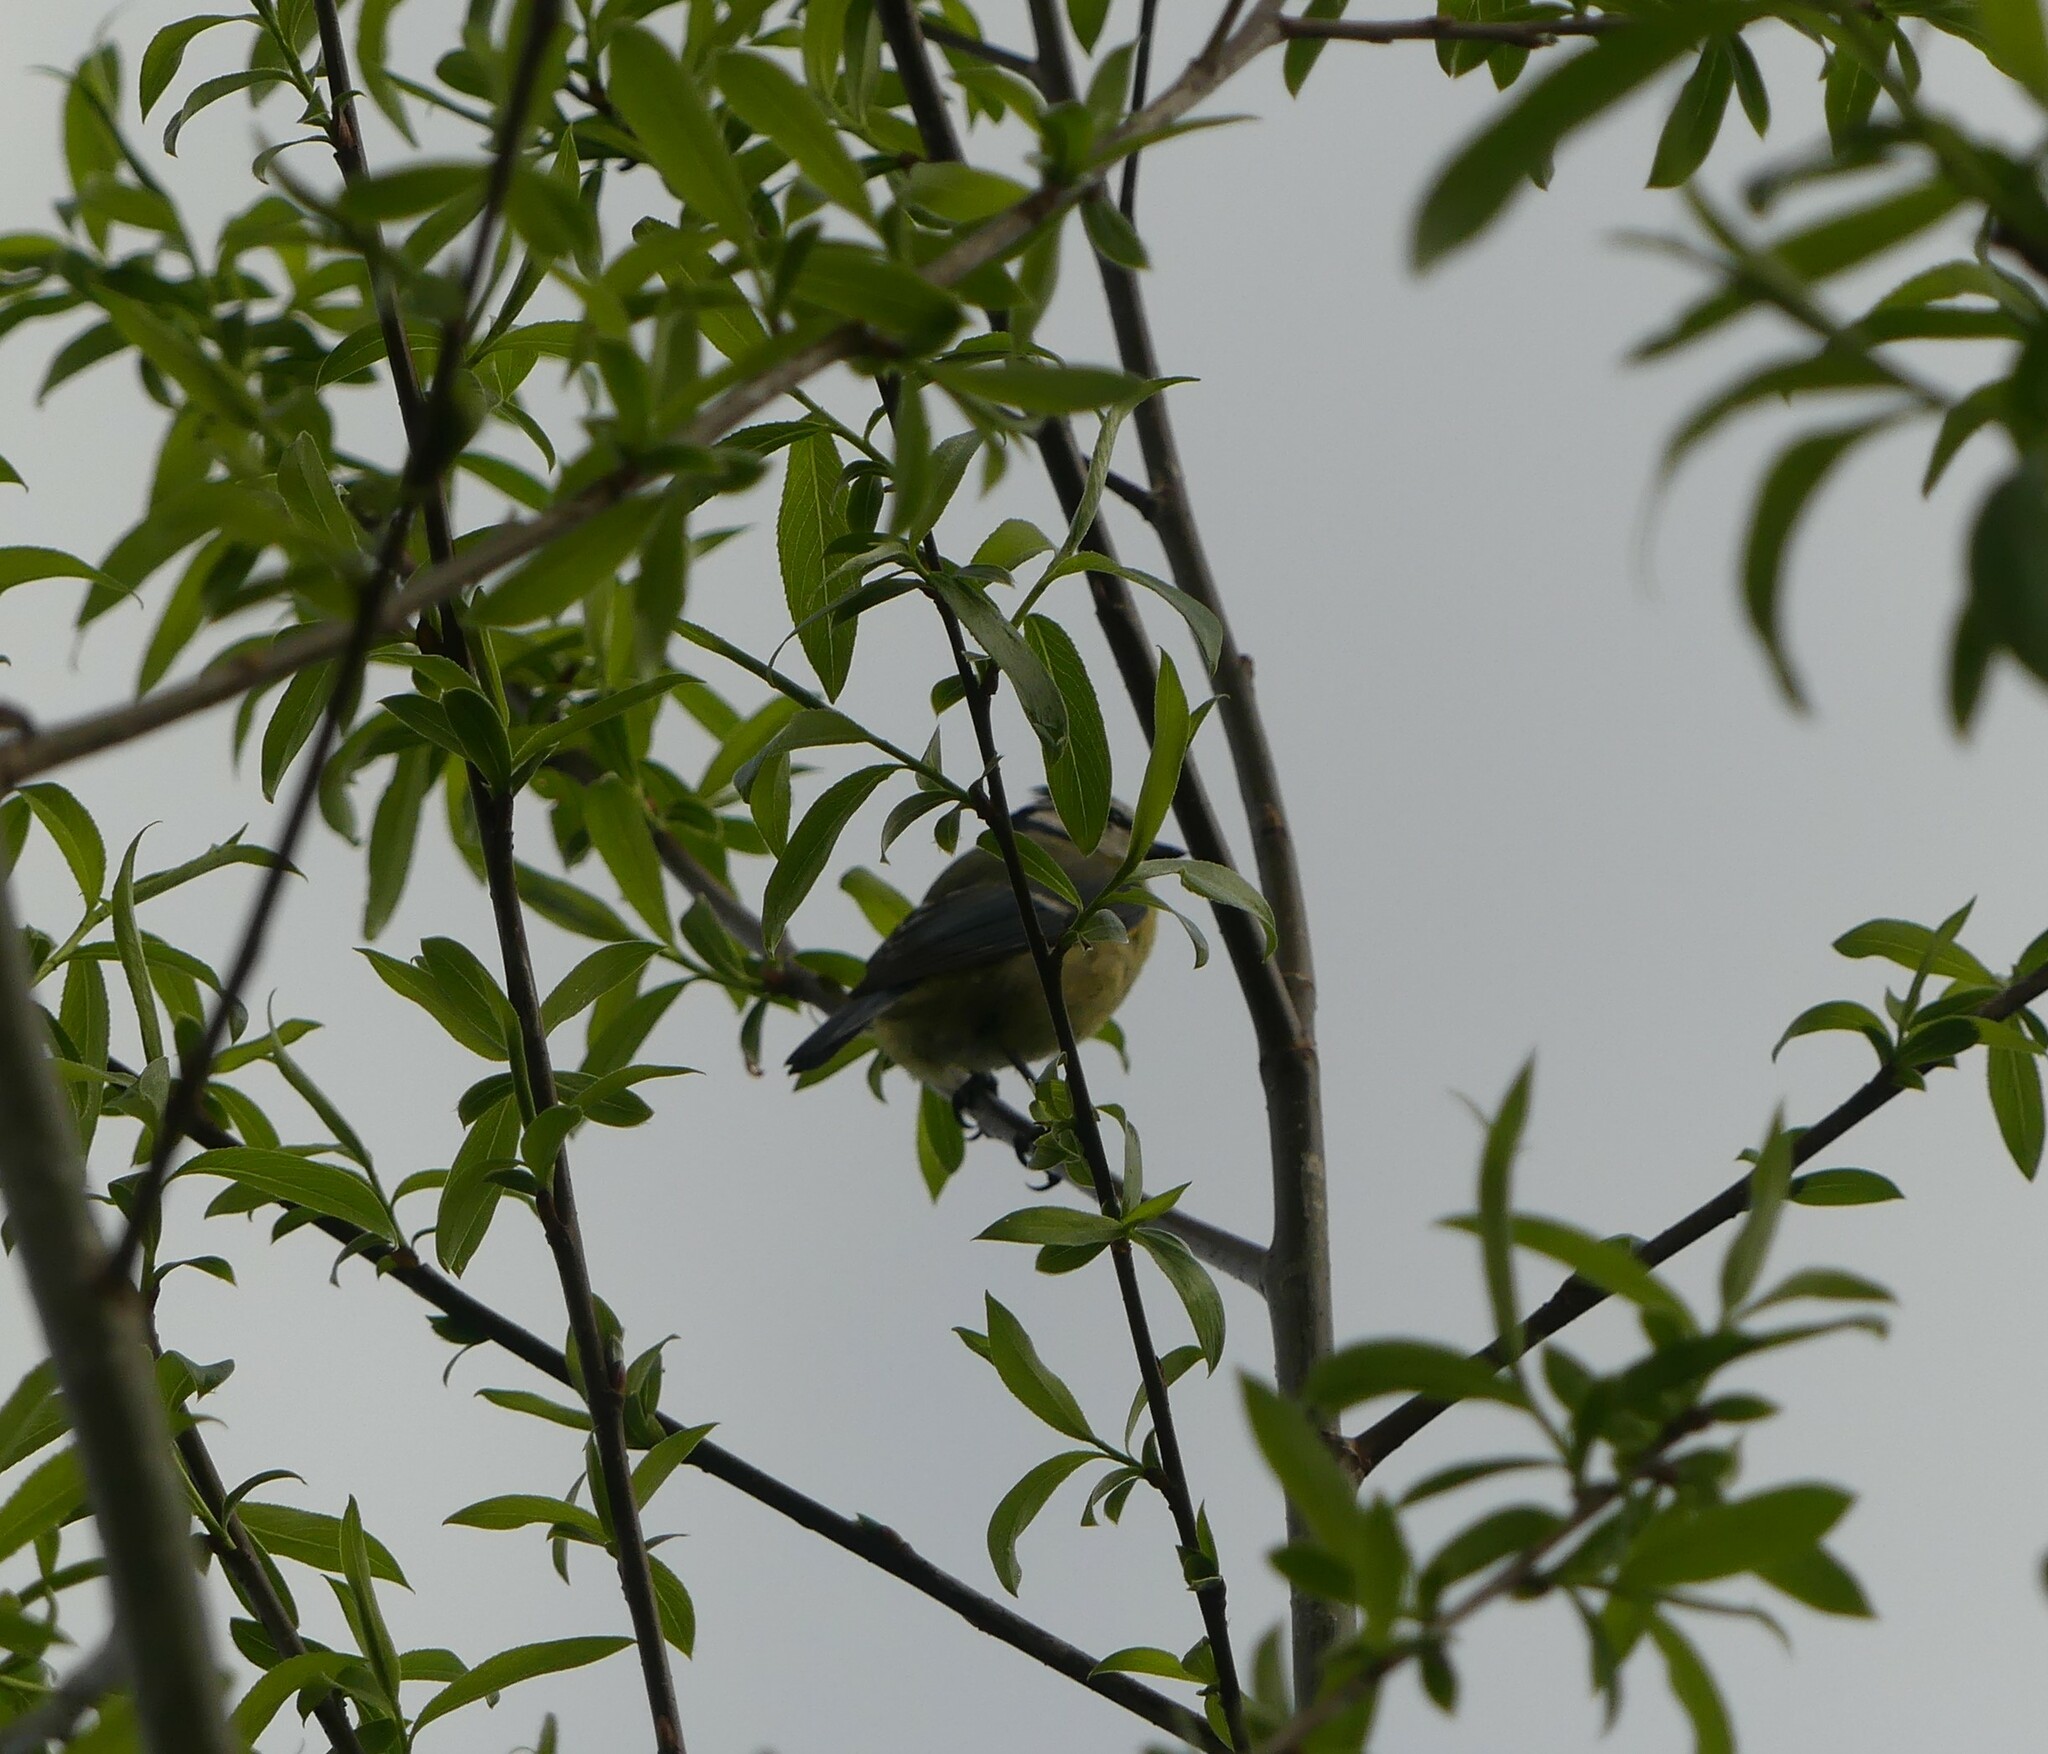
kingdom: Animalia
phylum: Chordata
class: Aves
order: Passeriformes
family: Paridae
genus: Cyanistes
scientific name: Cyanistes caeruleus
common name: Eurasian blue tit
